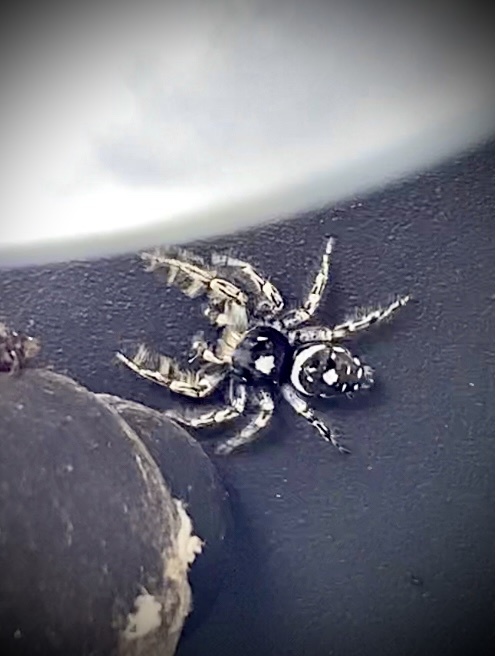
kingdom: Animalia
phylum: Arthropoda
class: Arachnida
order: Araneae
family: Salticidae
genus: Phidippus
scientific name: Phidippus putnami
